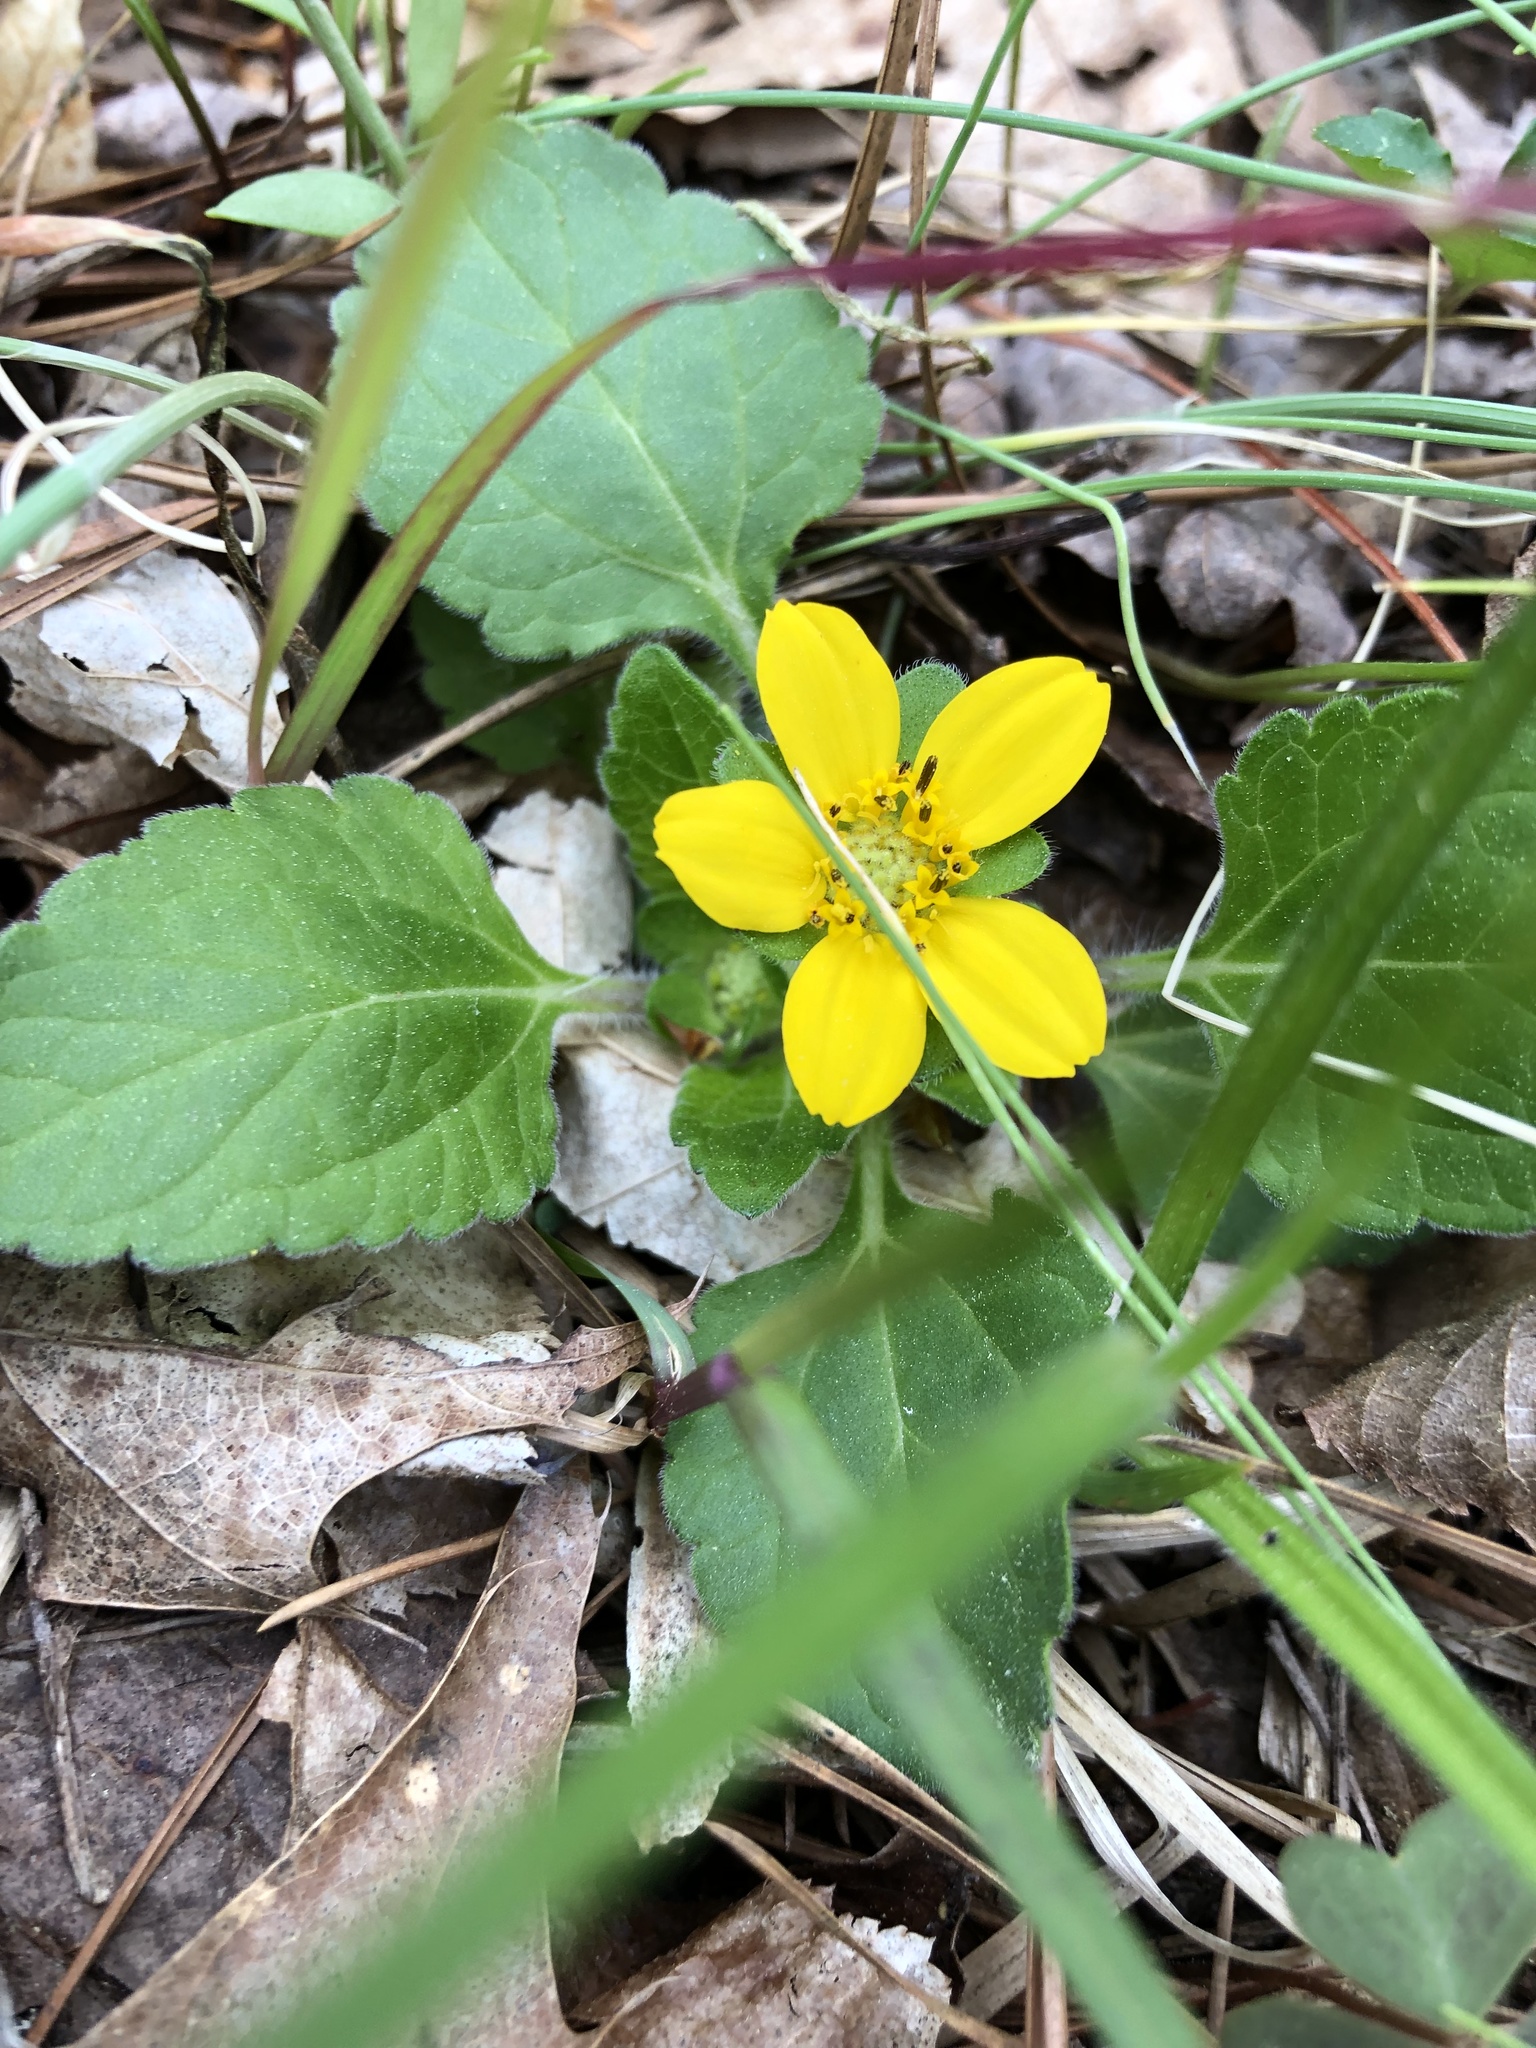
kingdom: Plantae
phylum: Tracheophyta
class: Magnoliopsida
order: Asterales
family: Asteraceae
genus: Chrysogonum
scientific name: Chrysogonum virginianum
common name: Golden-knee
